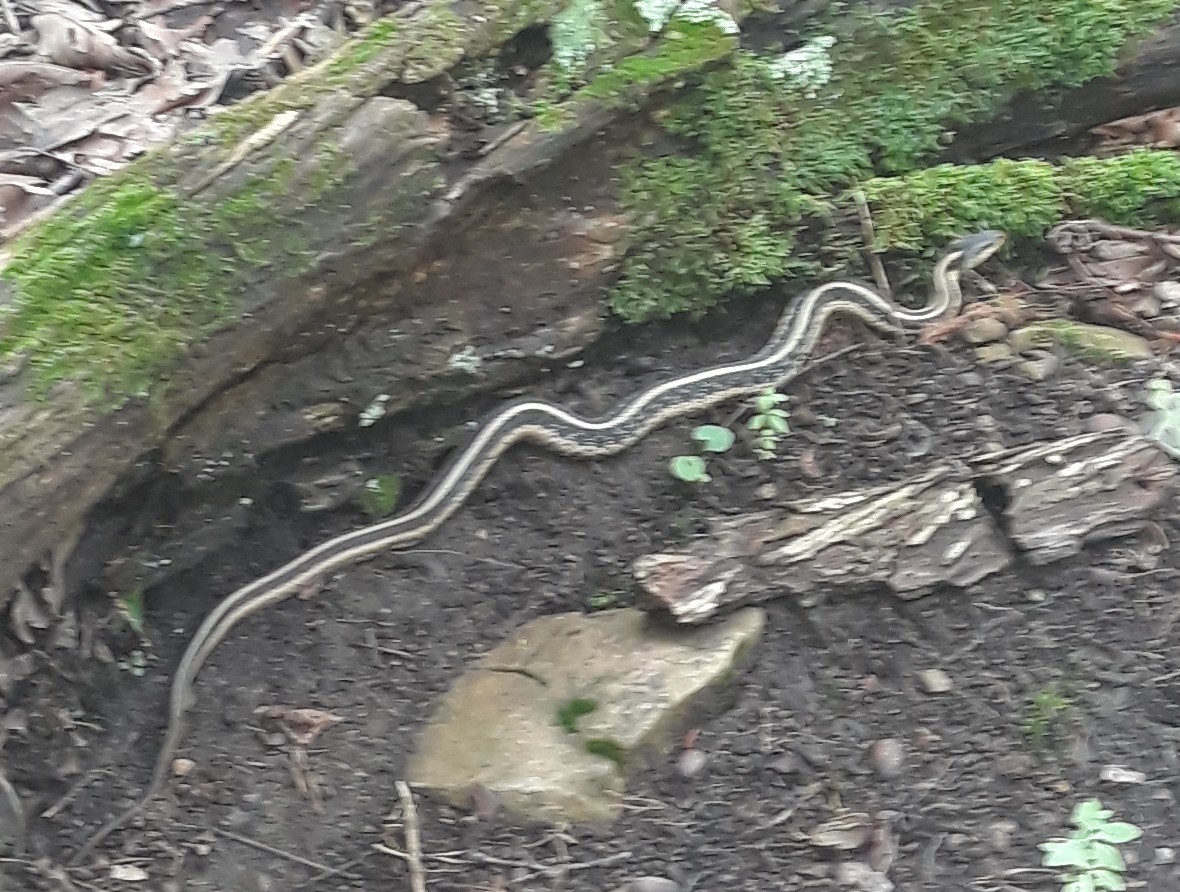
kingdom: Animalia
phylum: Chordata
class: Squamata
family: Colubridae
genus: Thamnophis
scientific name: Thamnophis sirtalis
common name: Common garter snake
